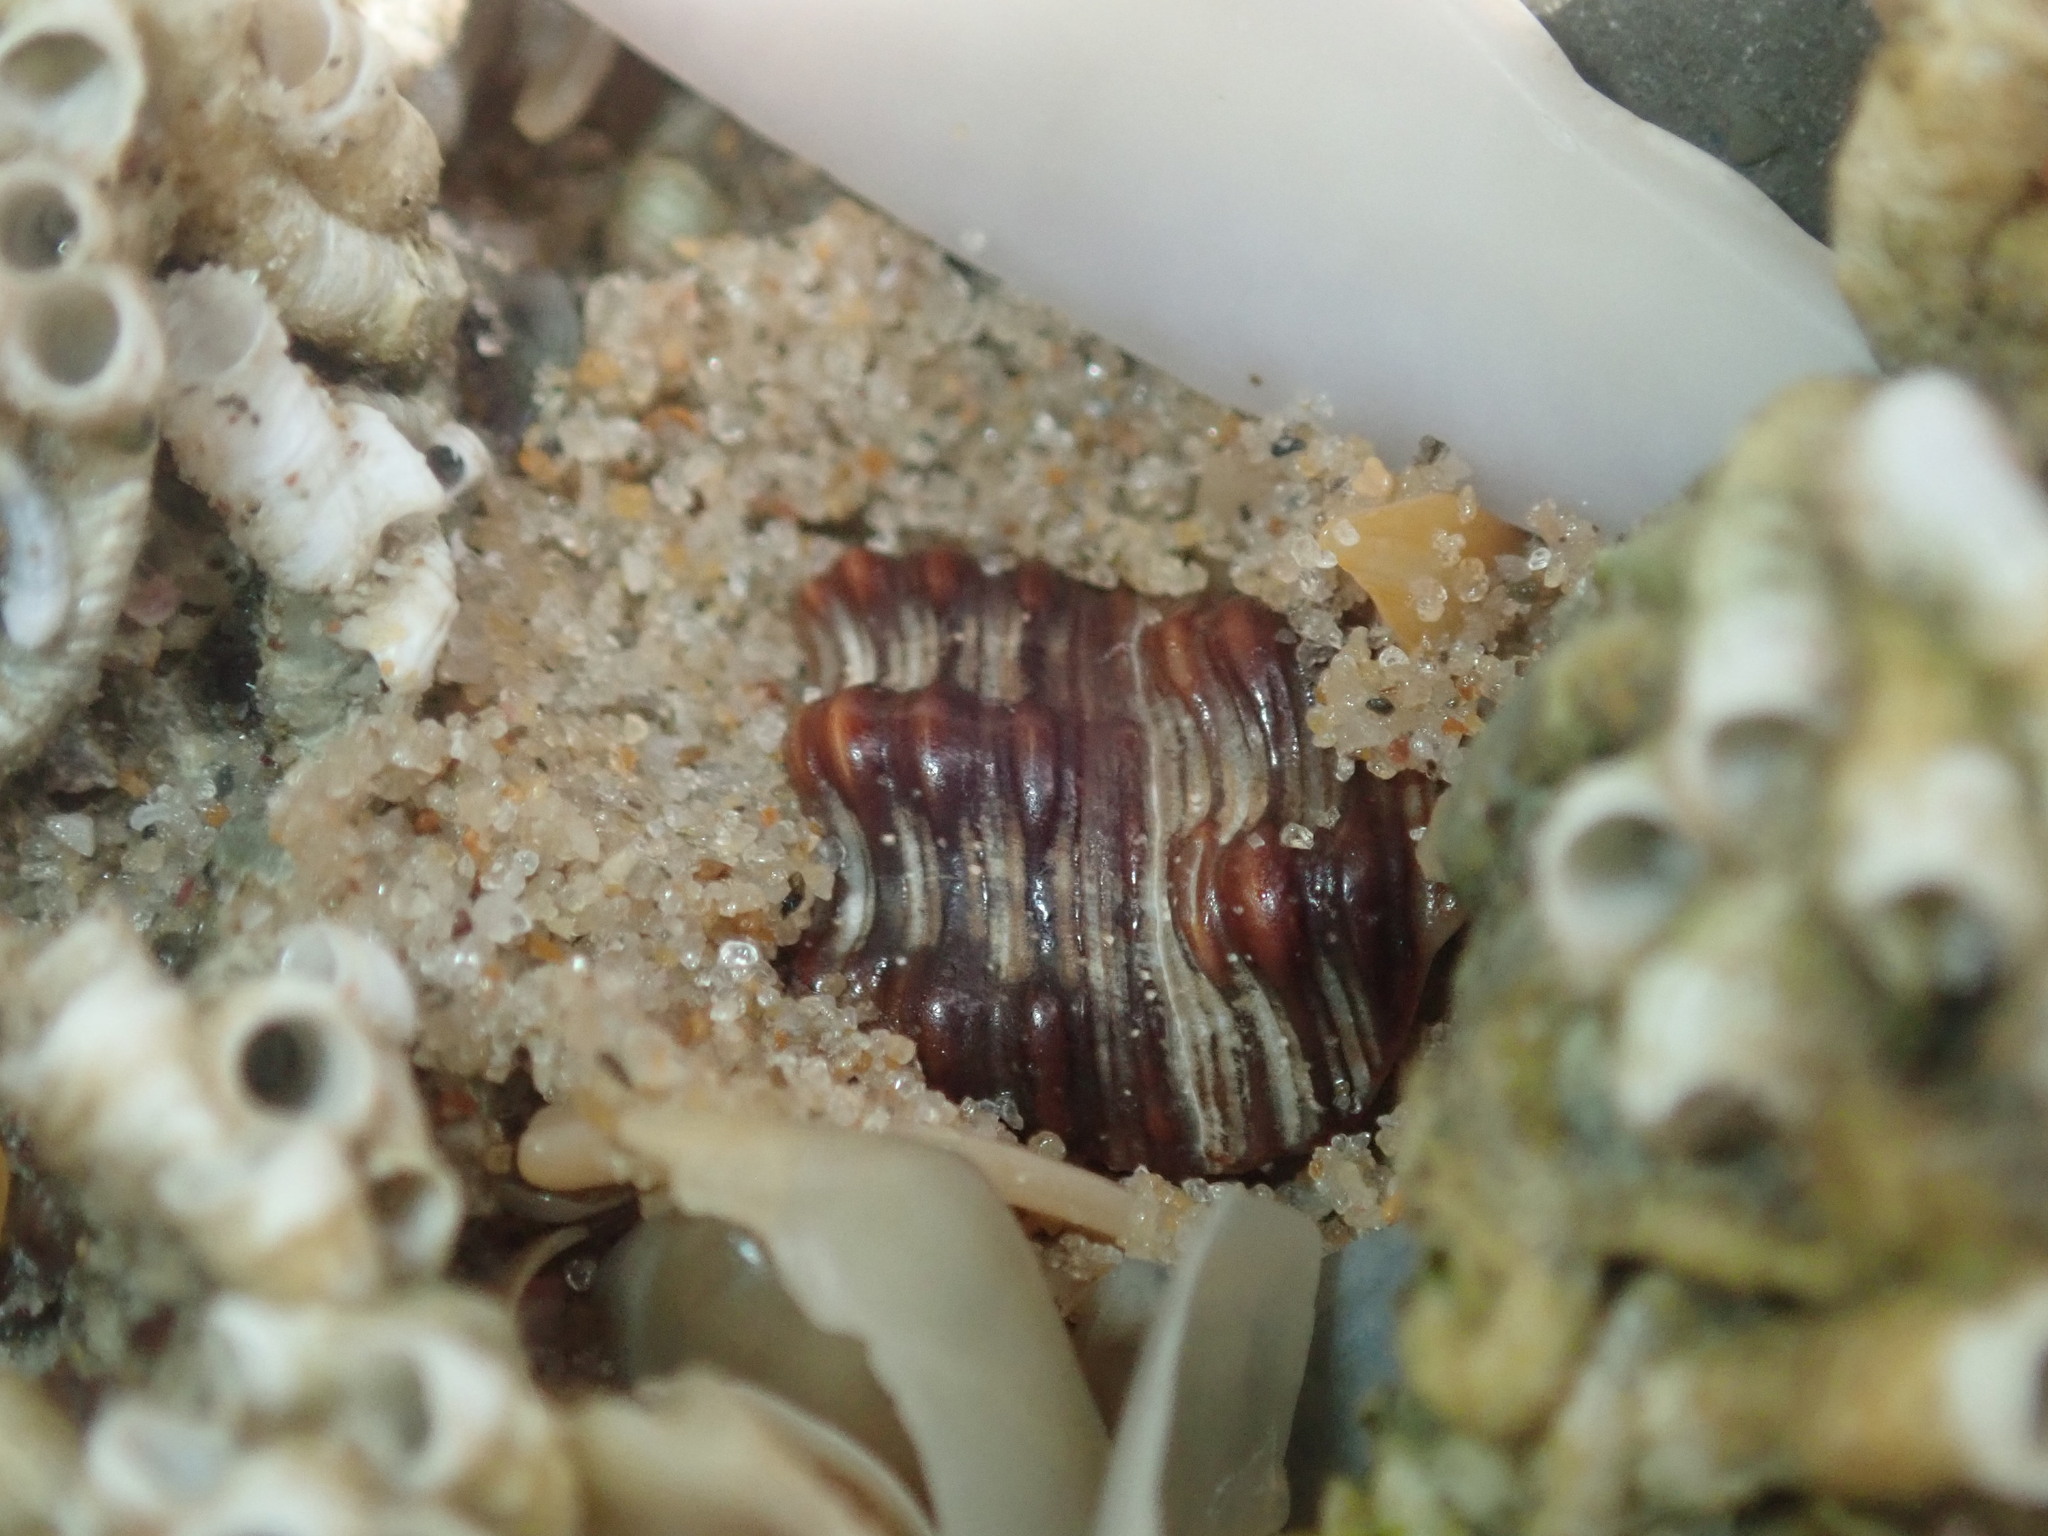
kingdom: Animalia
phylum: Mollusca
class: Gastropoda
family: Batillariidae
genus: Batillaria
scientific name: Batillaria australis
